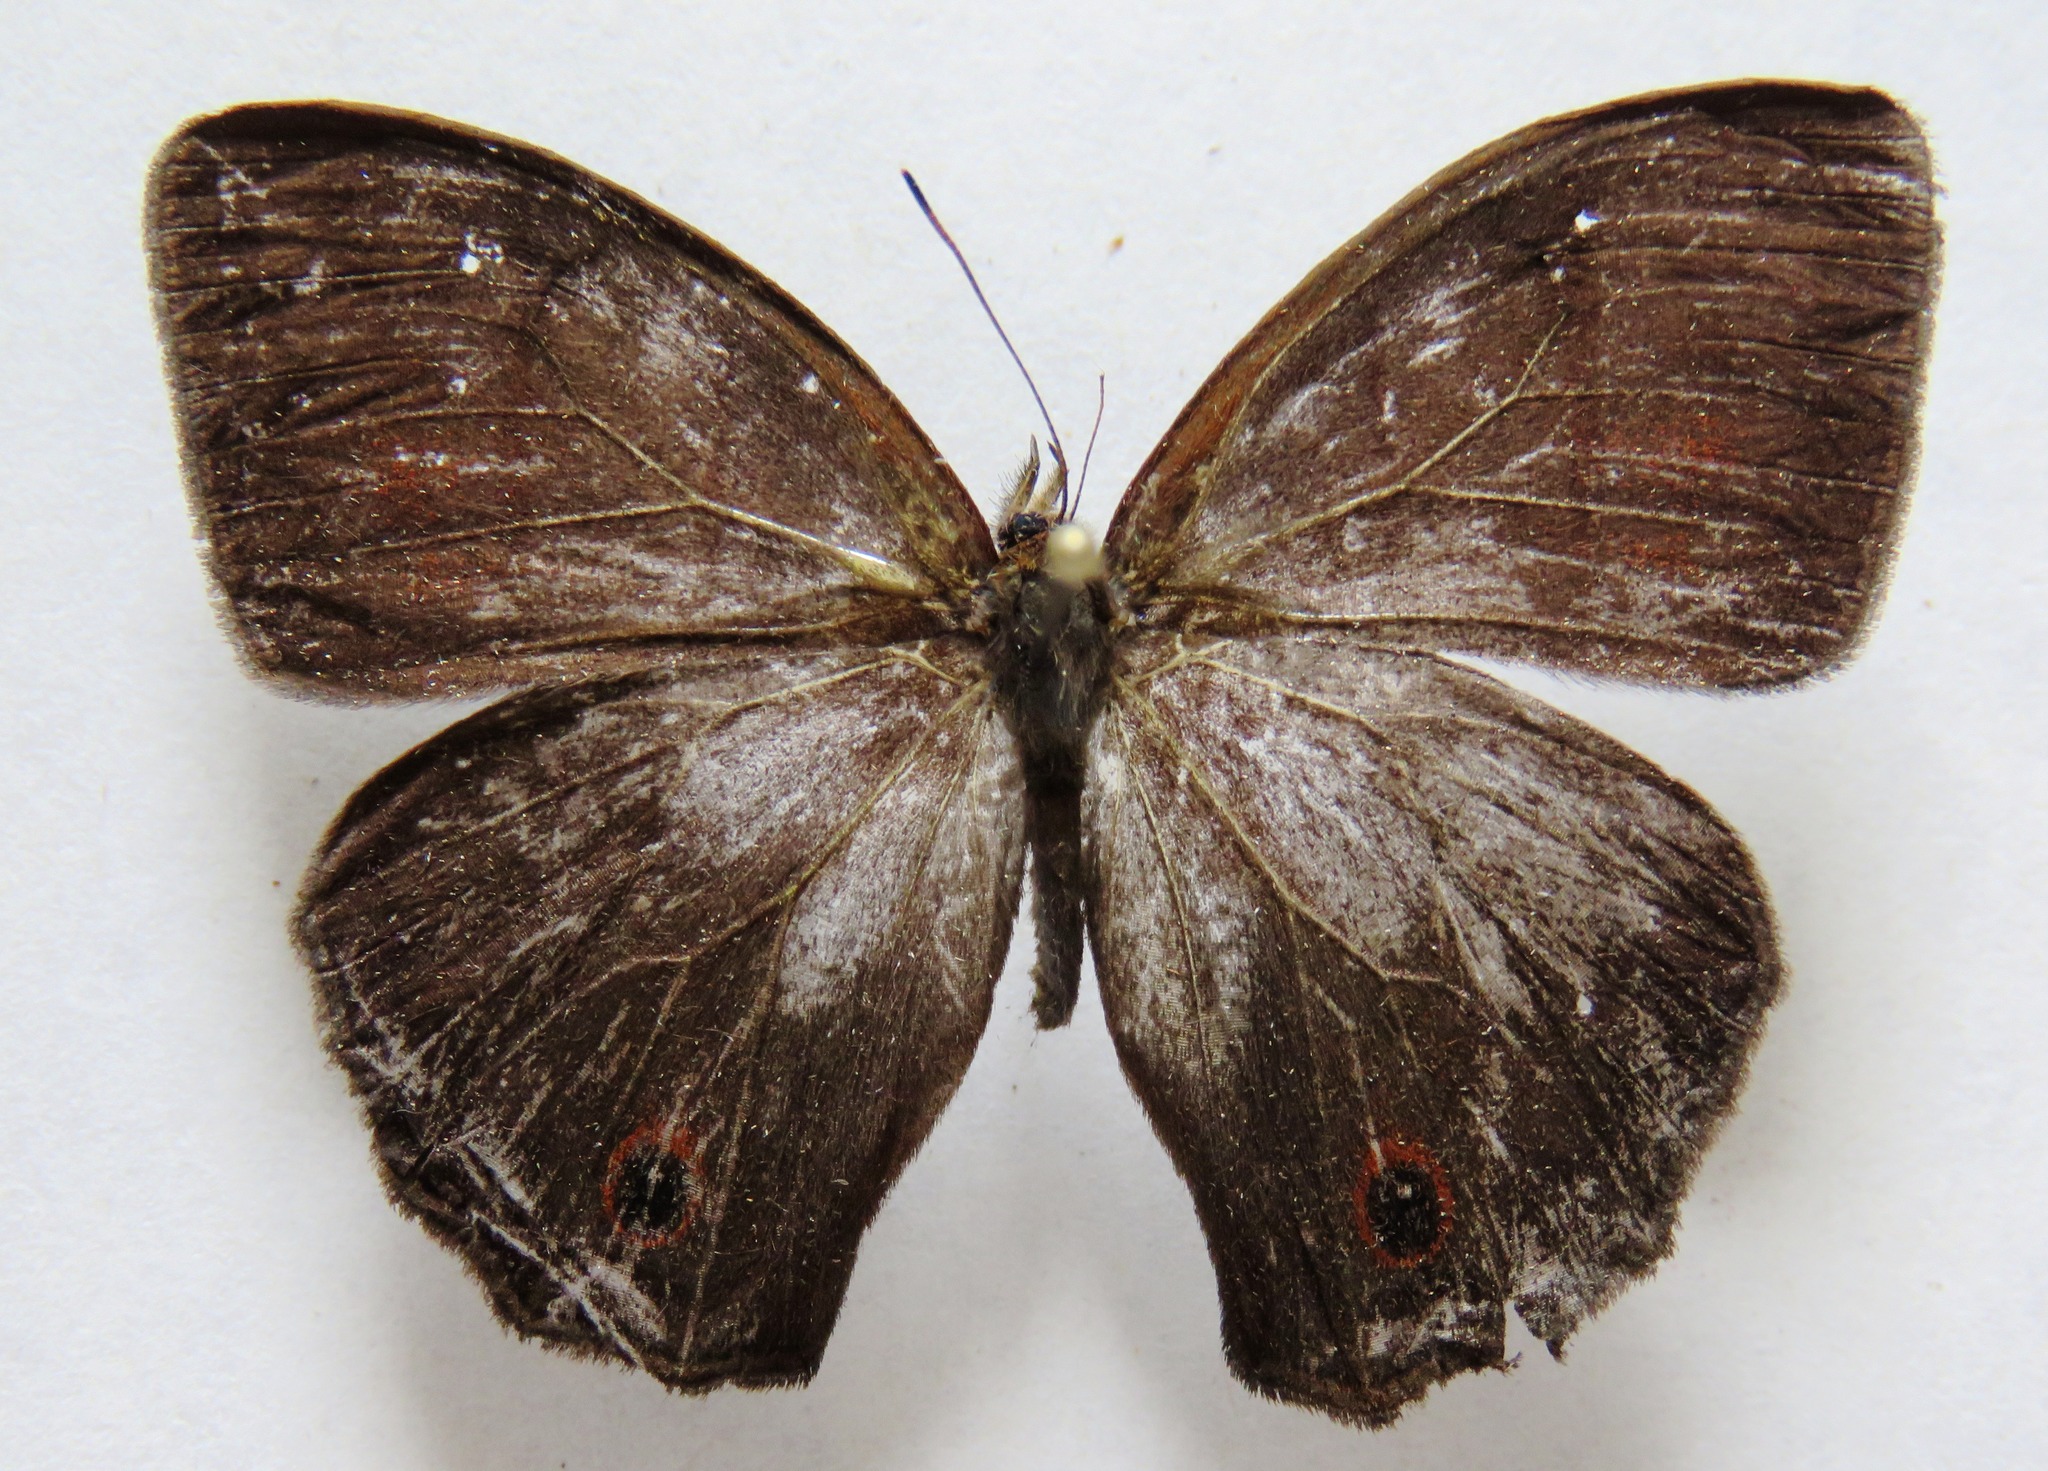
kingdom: Animalia
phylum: Arthropoda
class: Insecta
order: Lepidoptera
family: Nymphalidae
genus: Satyrotaygetis
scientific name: Satyrotaygetis satyrina
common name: Wide-bordered satyr
